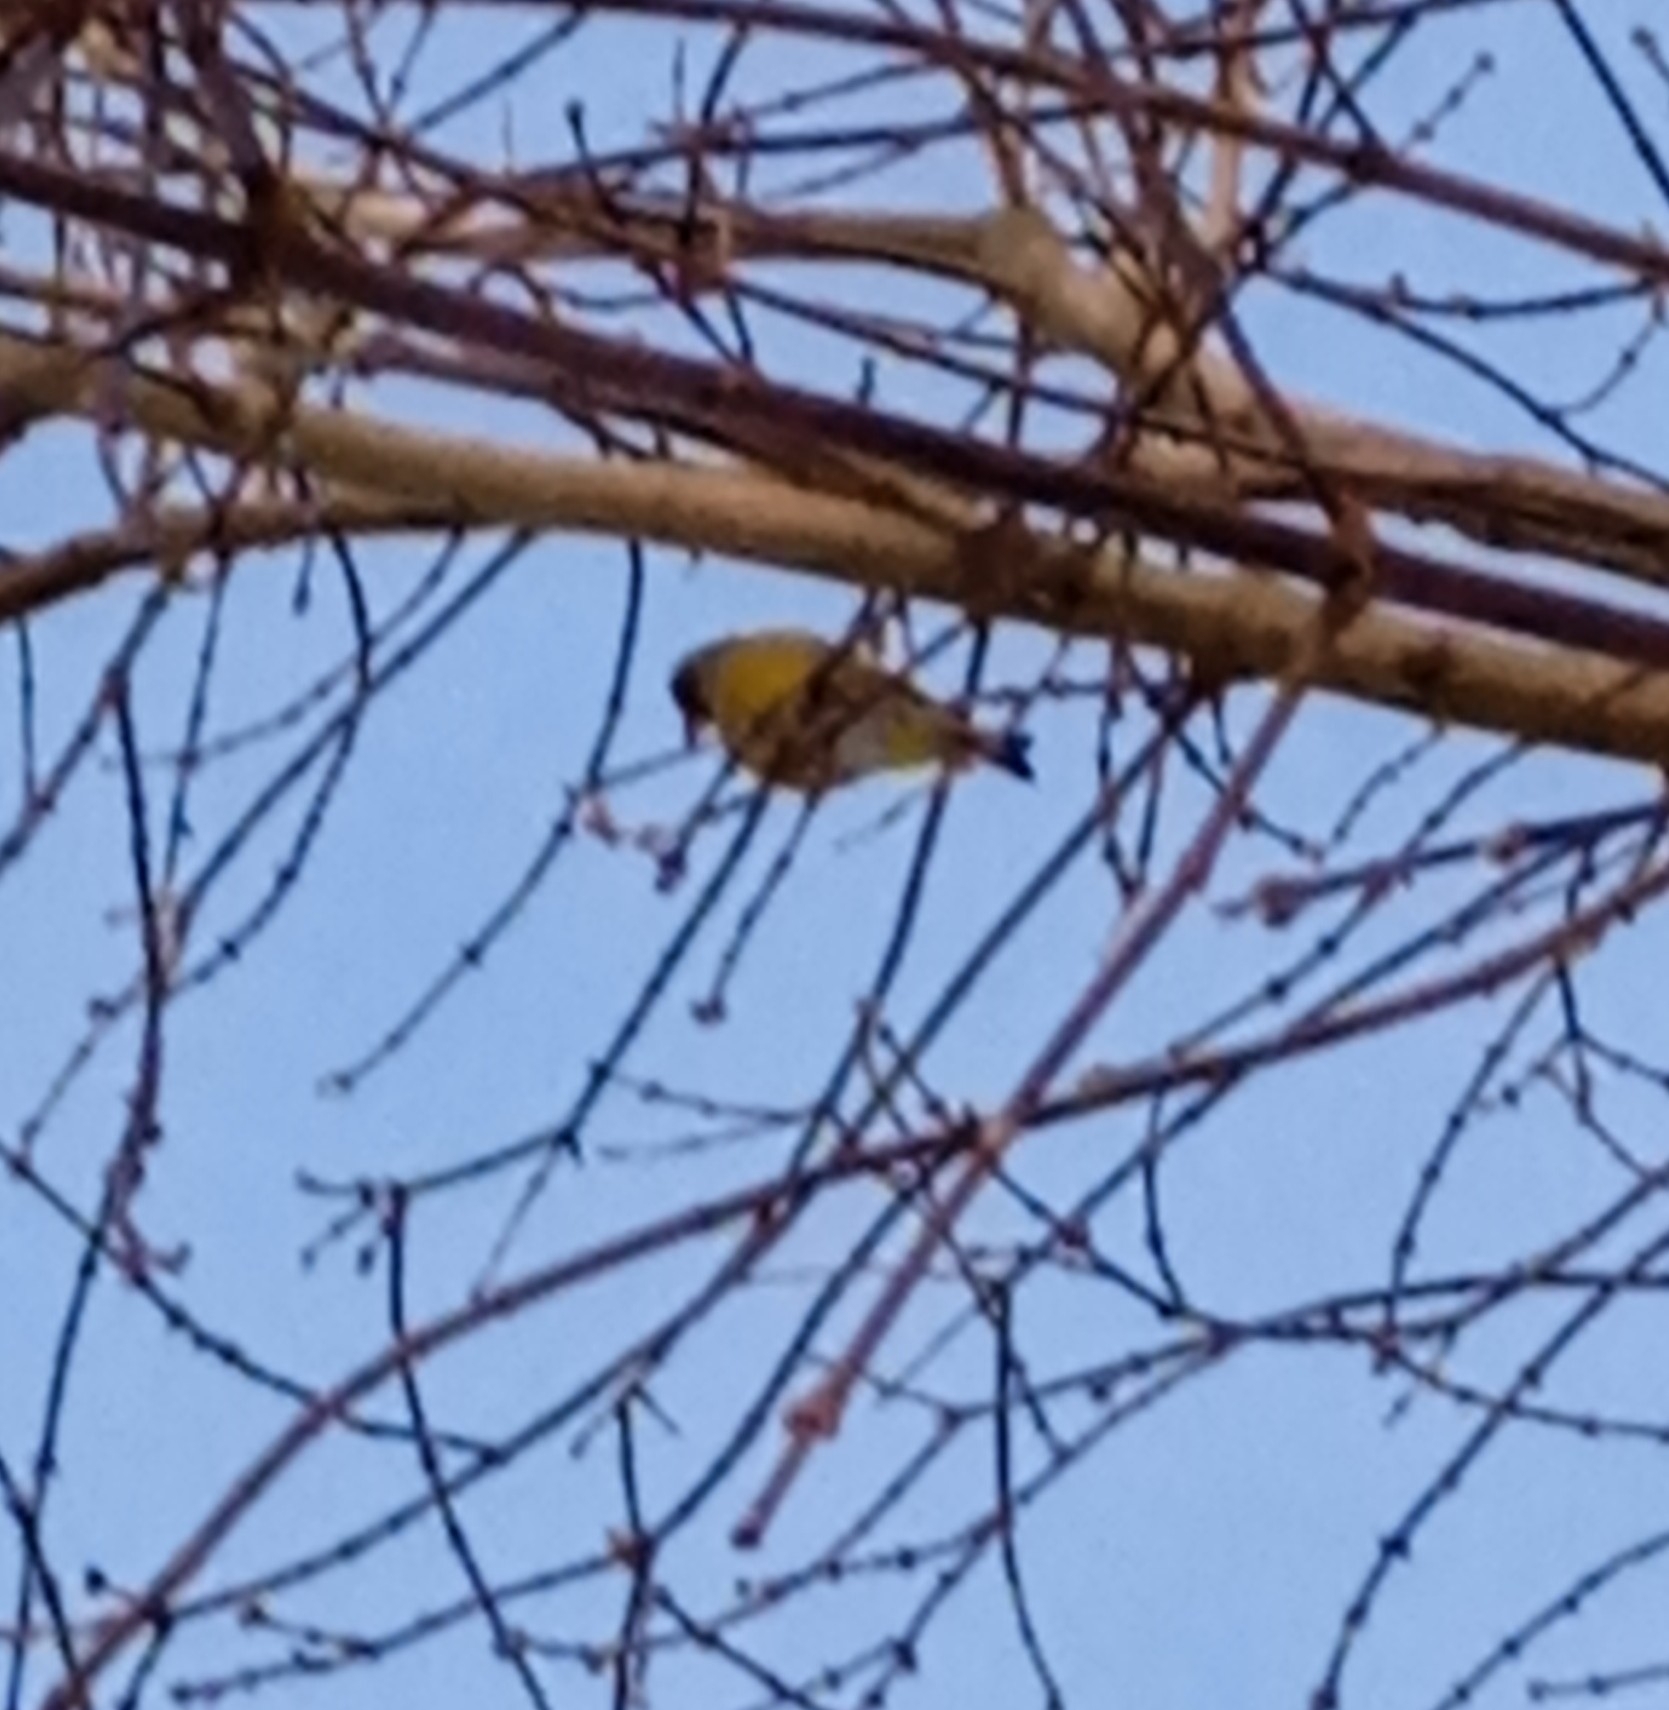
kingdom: Animalia
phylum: Chordata
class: Aves
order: Passeriformes
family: Fringillidae
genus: Spinus
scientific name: Spinus spinus
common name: Eurasian siskin
